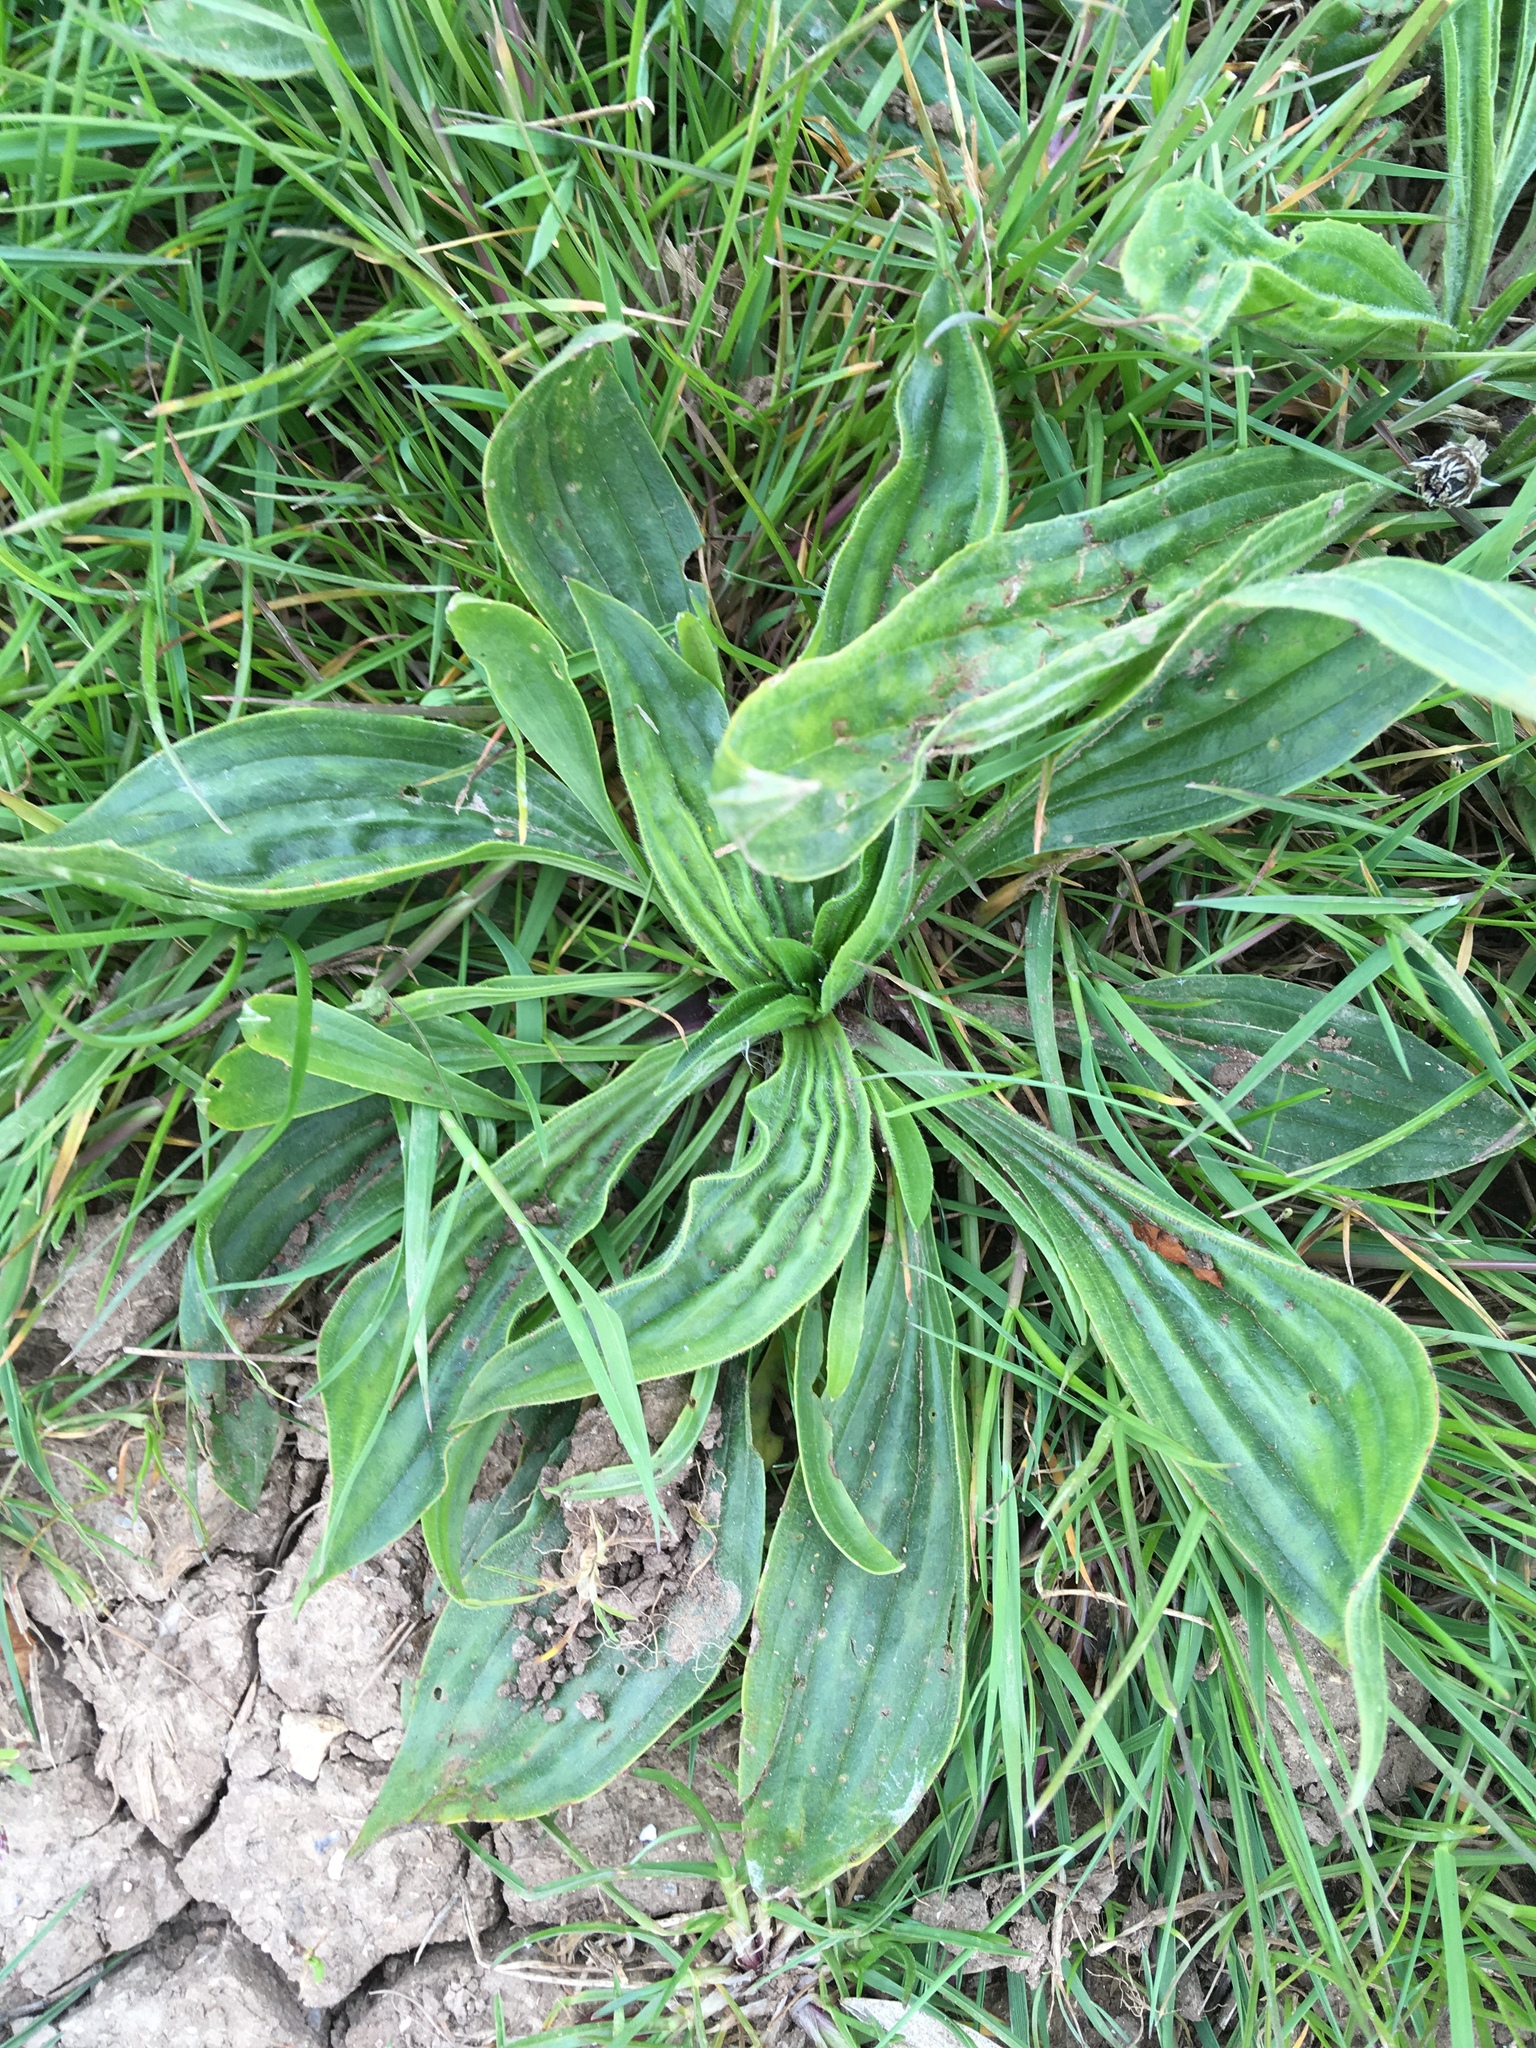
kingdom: Plantae
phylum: Tracheophyta
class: Magnoliopsida
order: Lamiales
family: Plantaginaceae
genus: Plantago
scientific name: Plantago lanceolata
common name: Ribwort plantain
